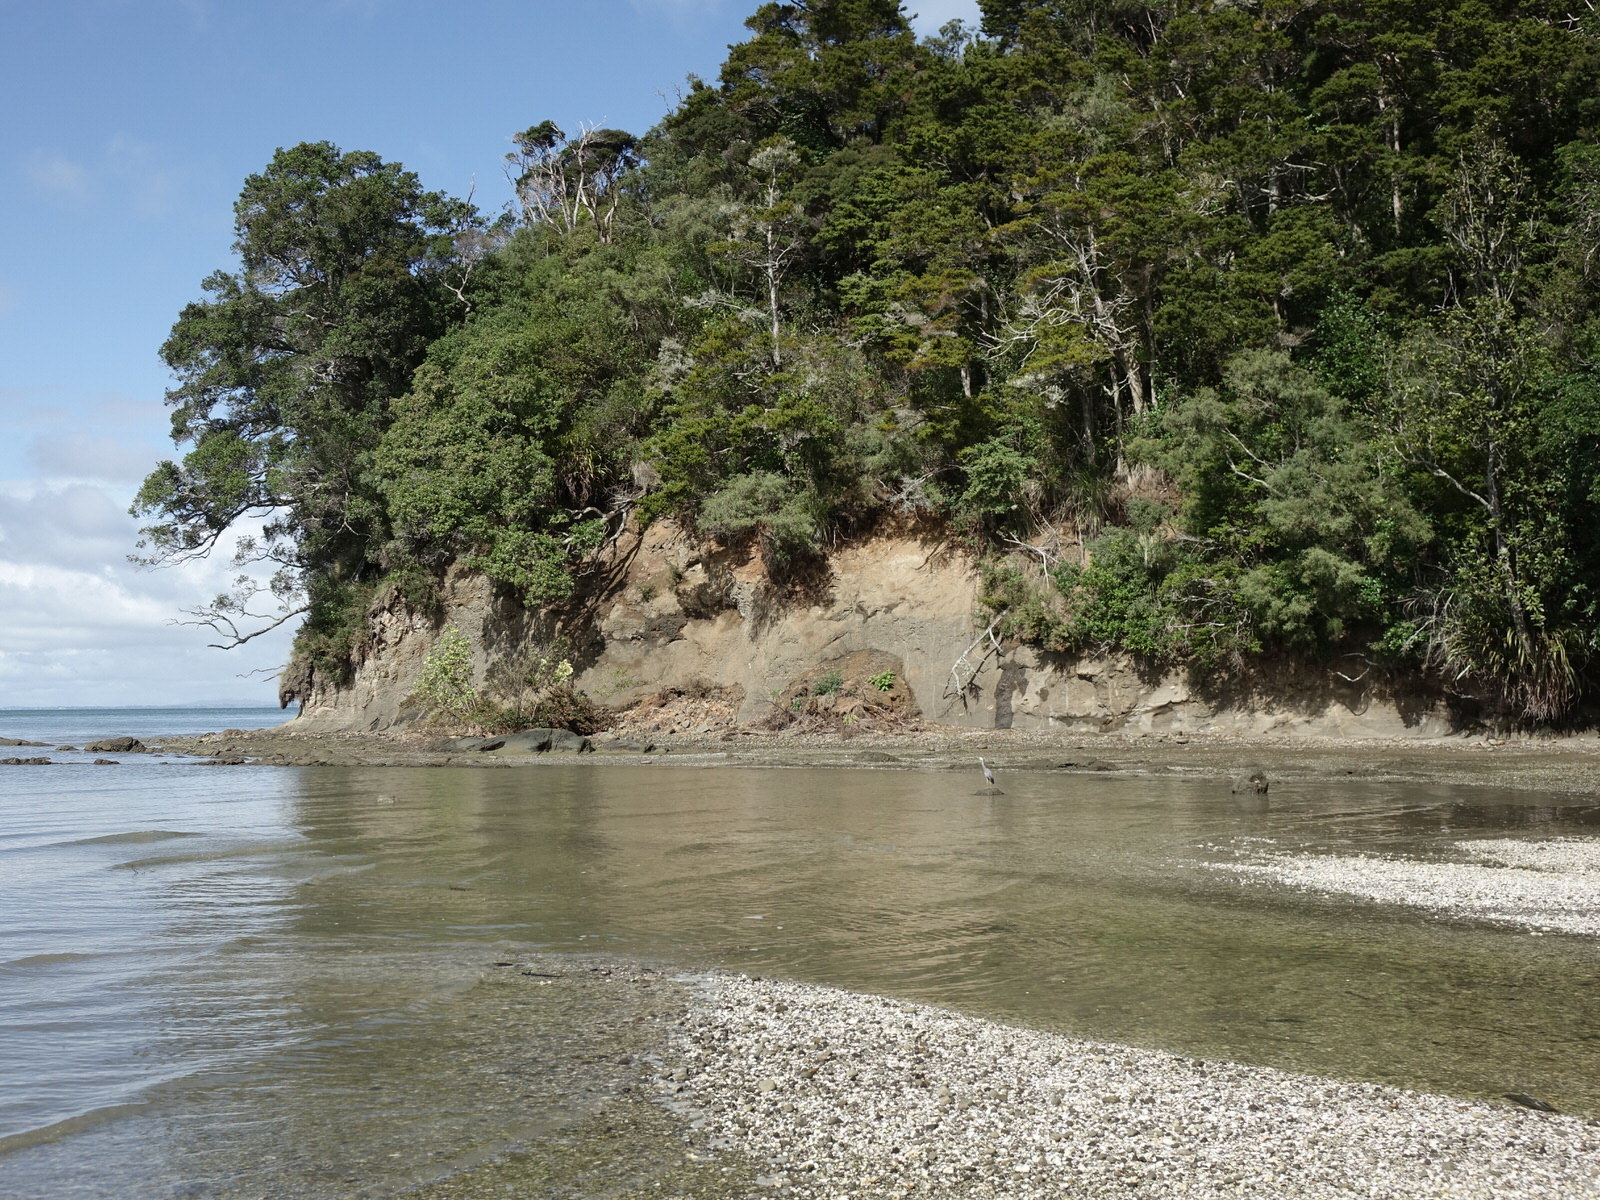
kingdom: Animalia
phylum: Chordata
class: Aves
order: Pelecaniformes
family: Ardeidae
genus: Egretta
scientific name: Egretta novaehollandiae
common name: White-faced heron
